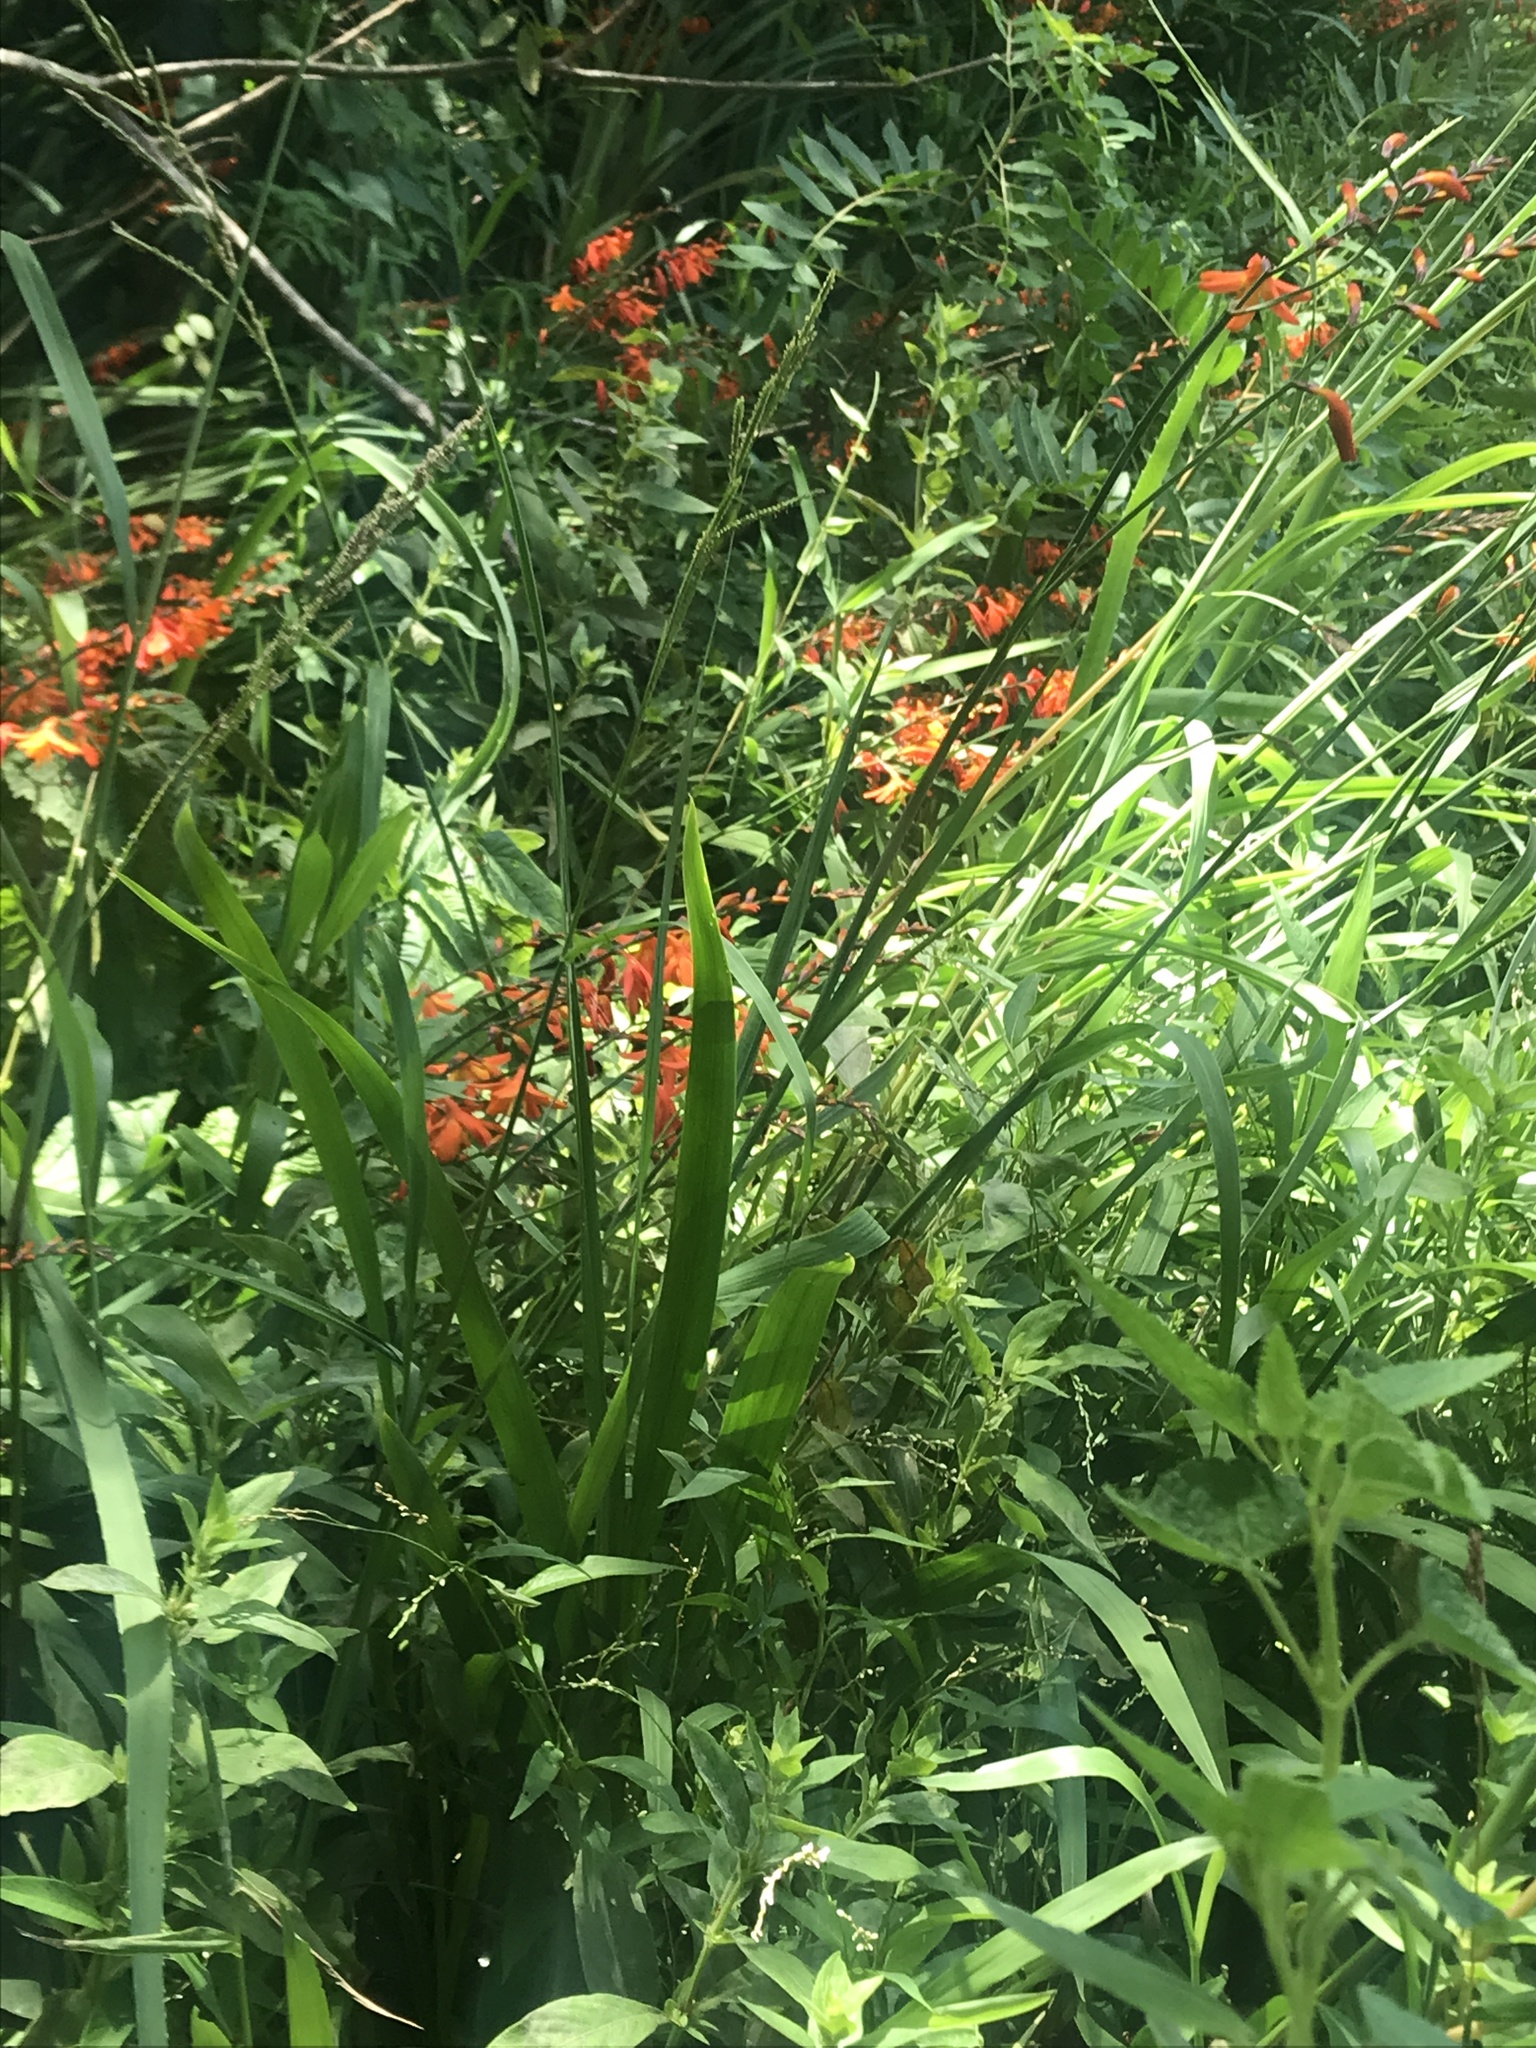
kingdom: Plantae
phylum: Tracheophyta
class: Liliopsida
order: Asparagales
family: Iridaceae
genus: Crocosmia
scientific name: Crocosmia crocosmiiflora
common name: Montbretia
